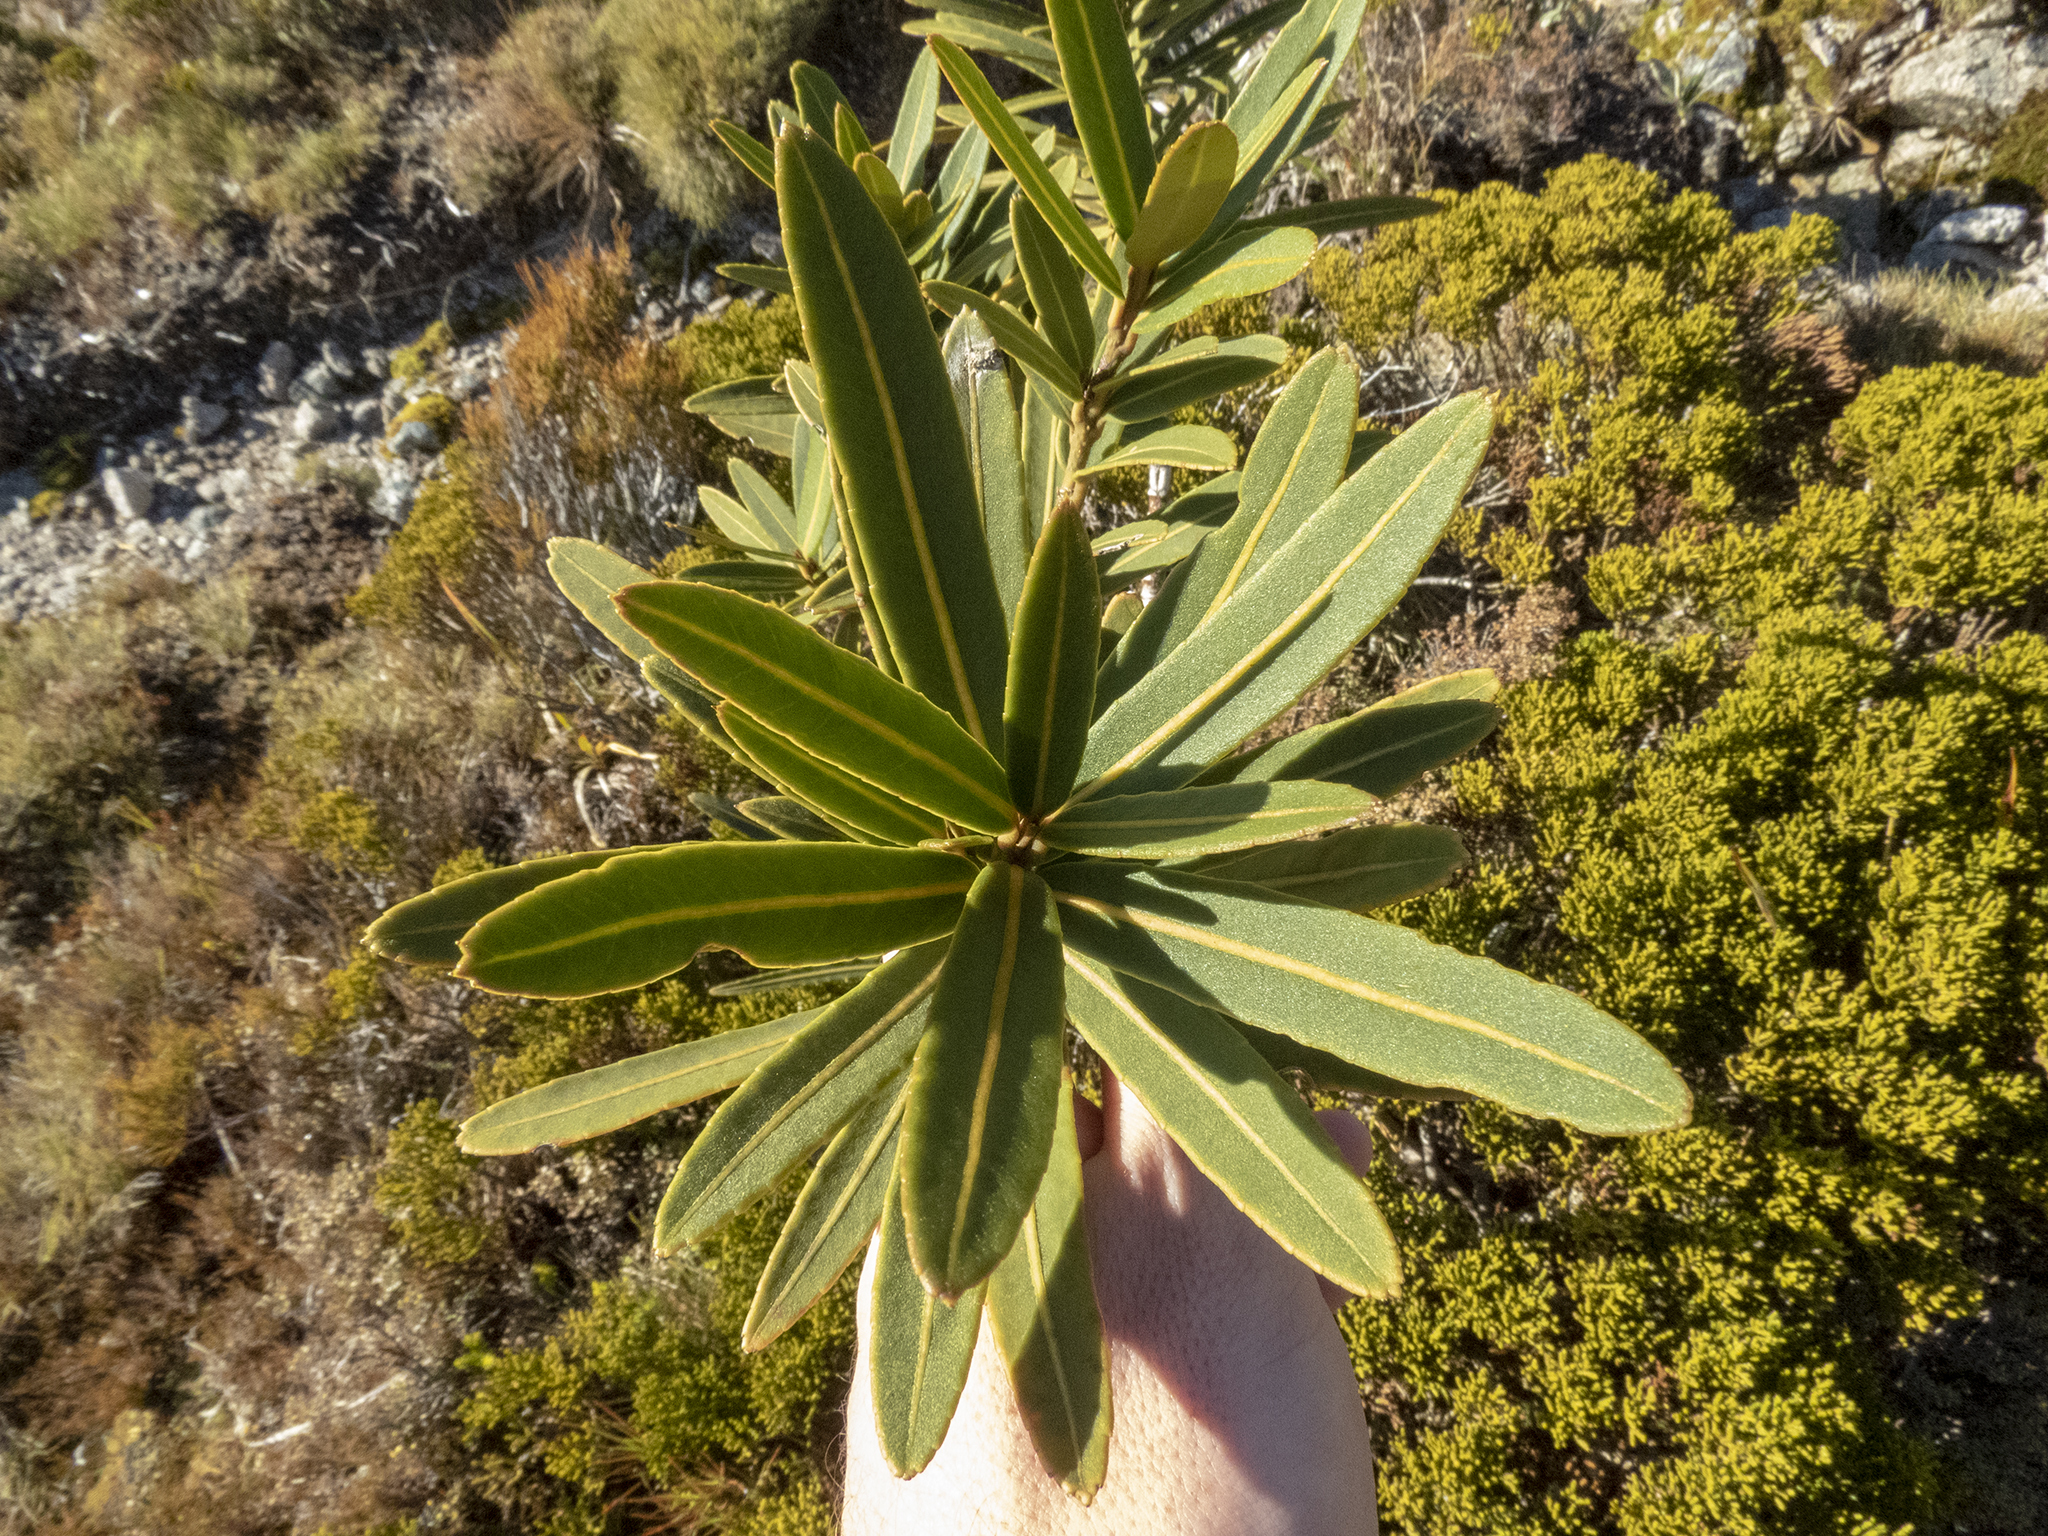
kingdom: Plantae
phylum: Tracheophyta
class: Magnoliopsida
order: Apiales
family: Araliaceae
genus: Pseudopanax
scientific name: Pseudopanax linearis
